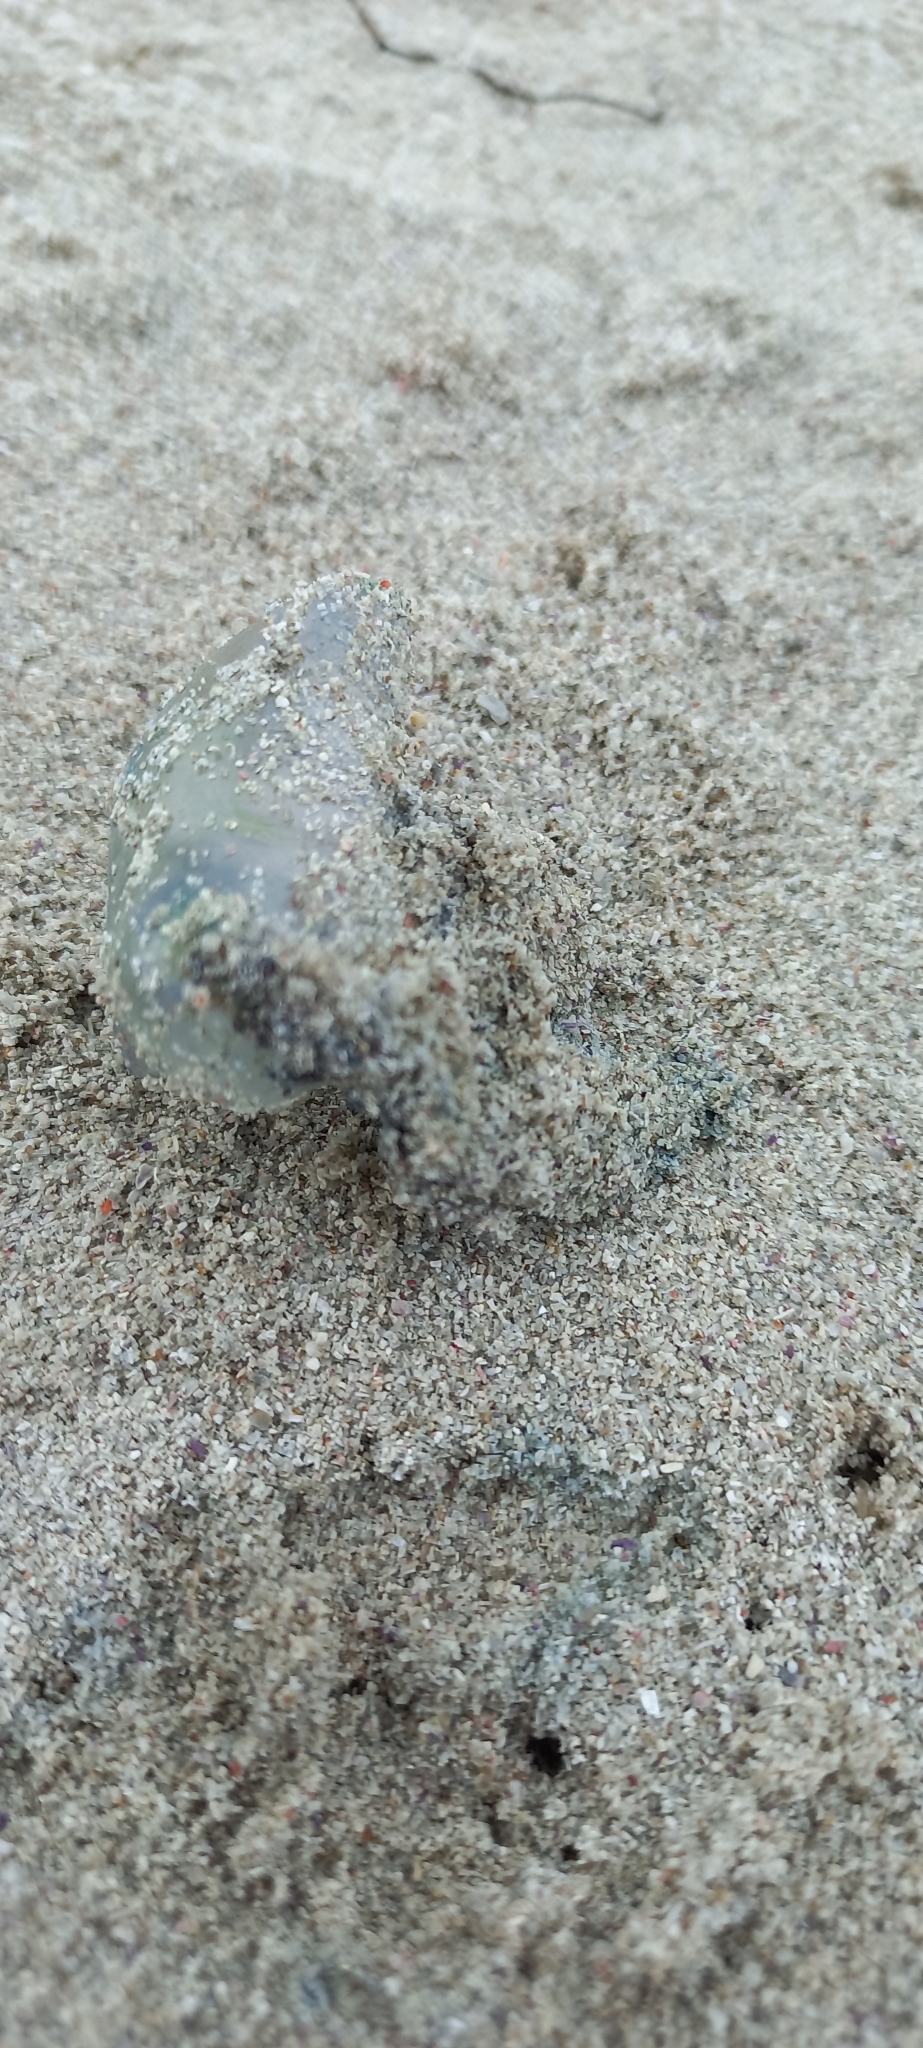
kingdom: Animalia
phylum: Cnidaria
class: Hydrozoa
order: Siphonophorae
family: Physaliidae
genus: Physalia
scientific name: Physalia physalis
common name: Portuguese man-of-war
